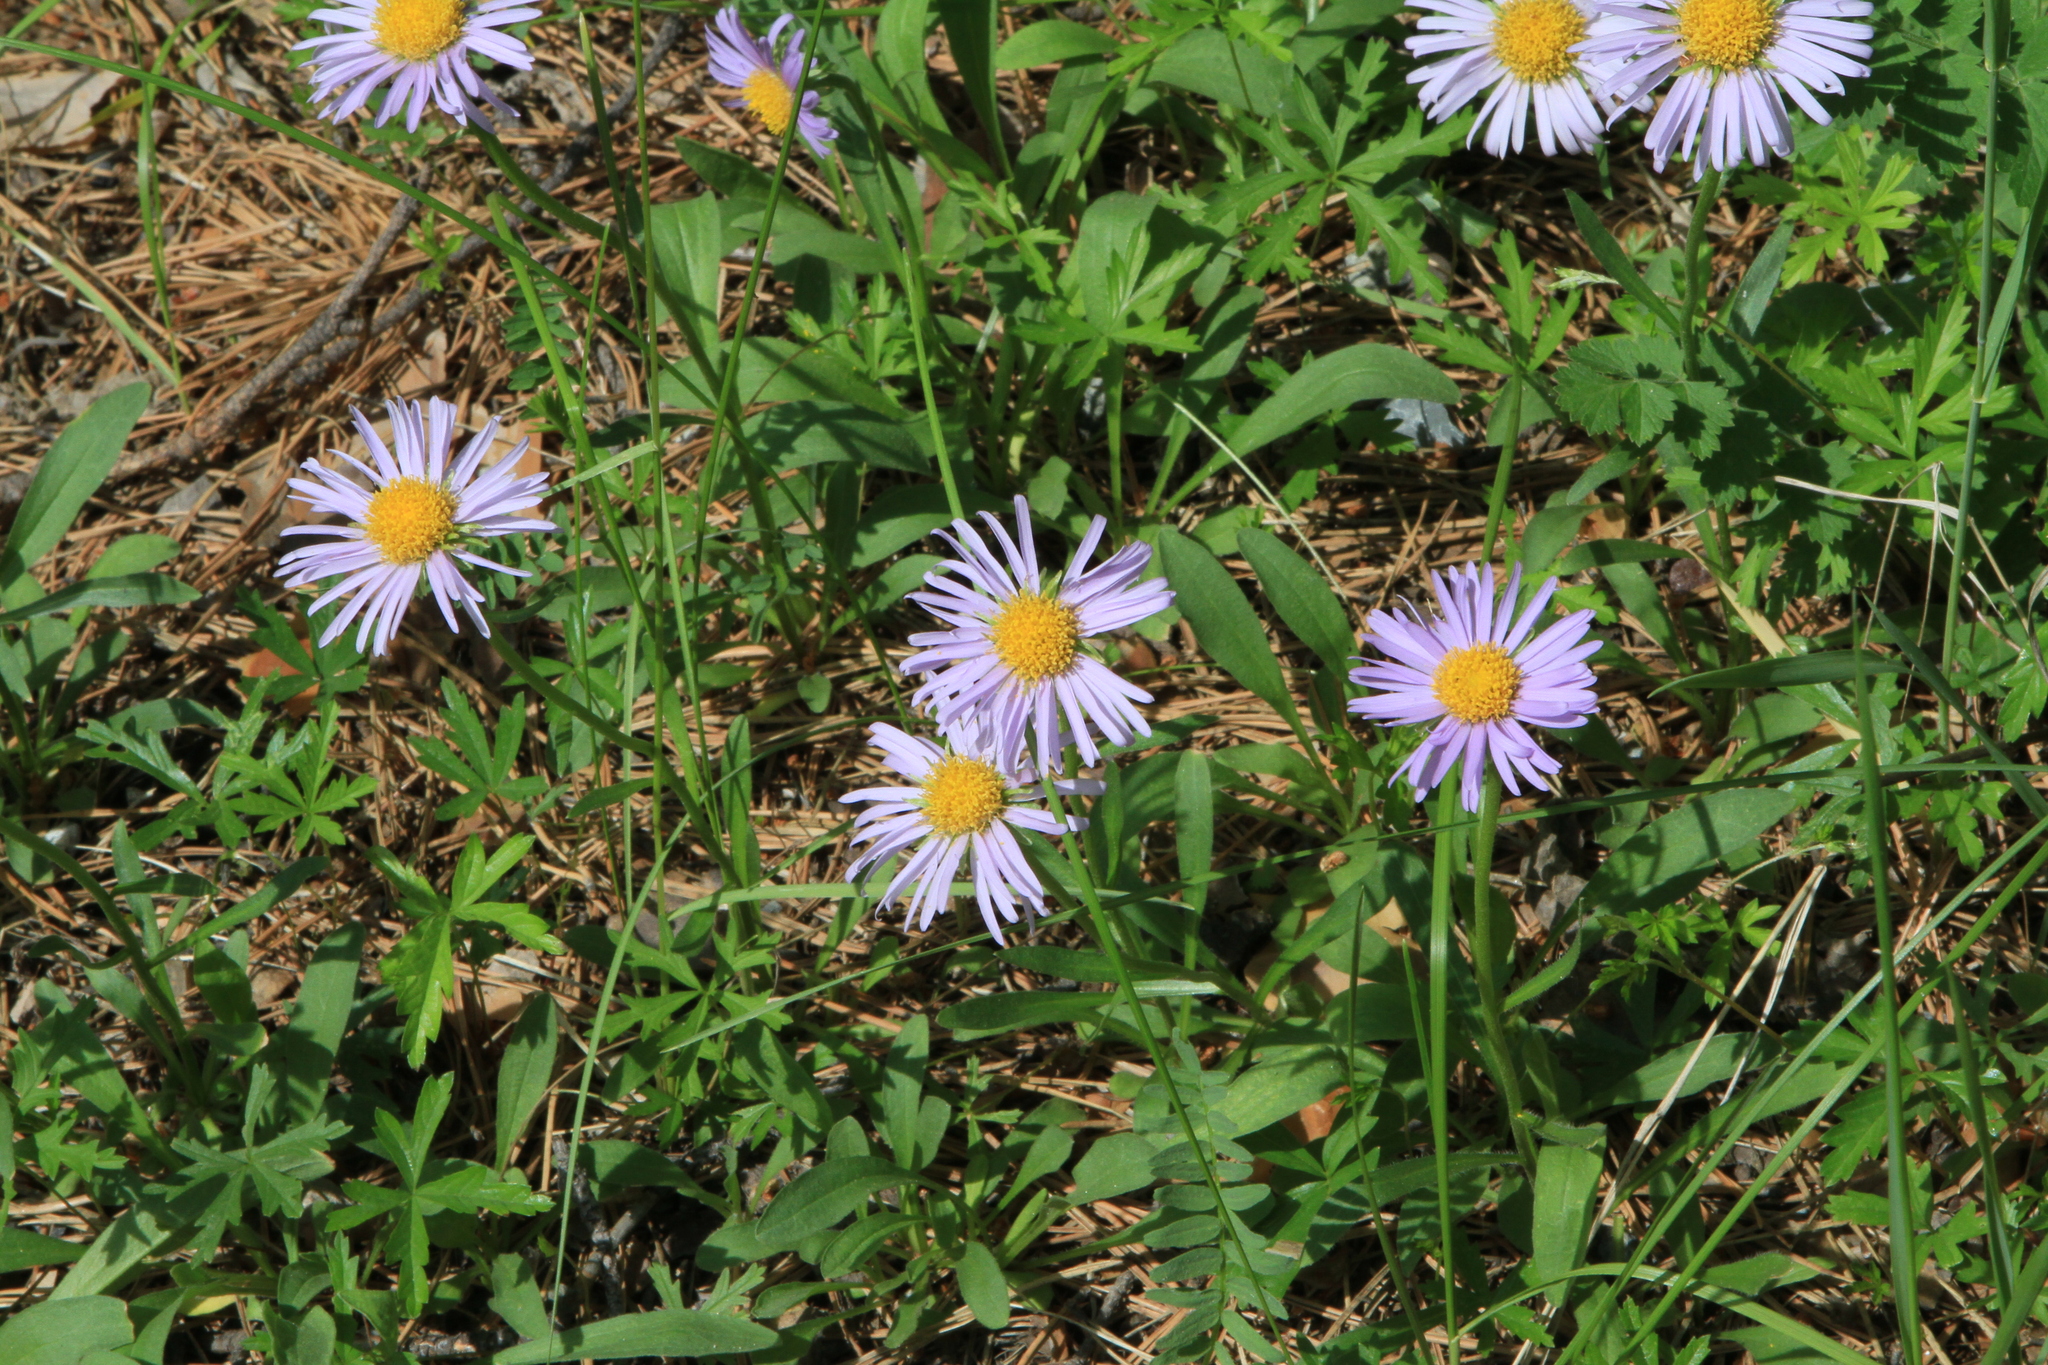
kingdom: Plantae
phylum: Tracheophyta
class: Magnoliopsida
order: Asterales
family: Asteraceae
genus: Aster
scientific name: Aster alpinus
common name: Alpine aster
